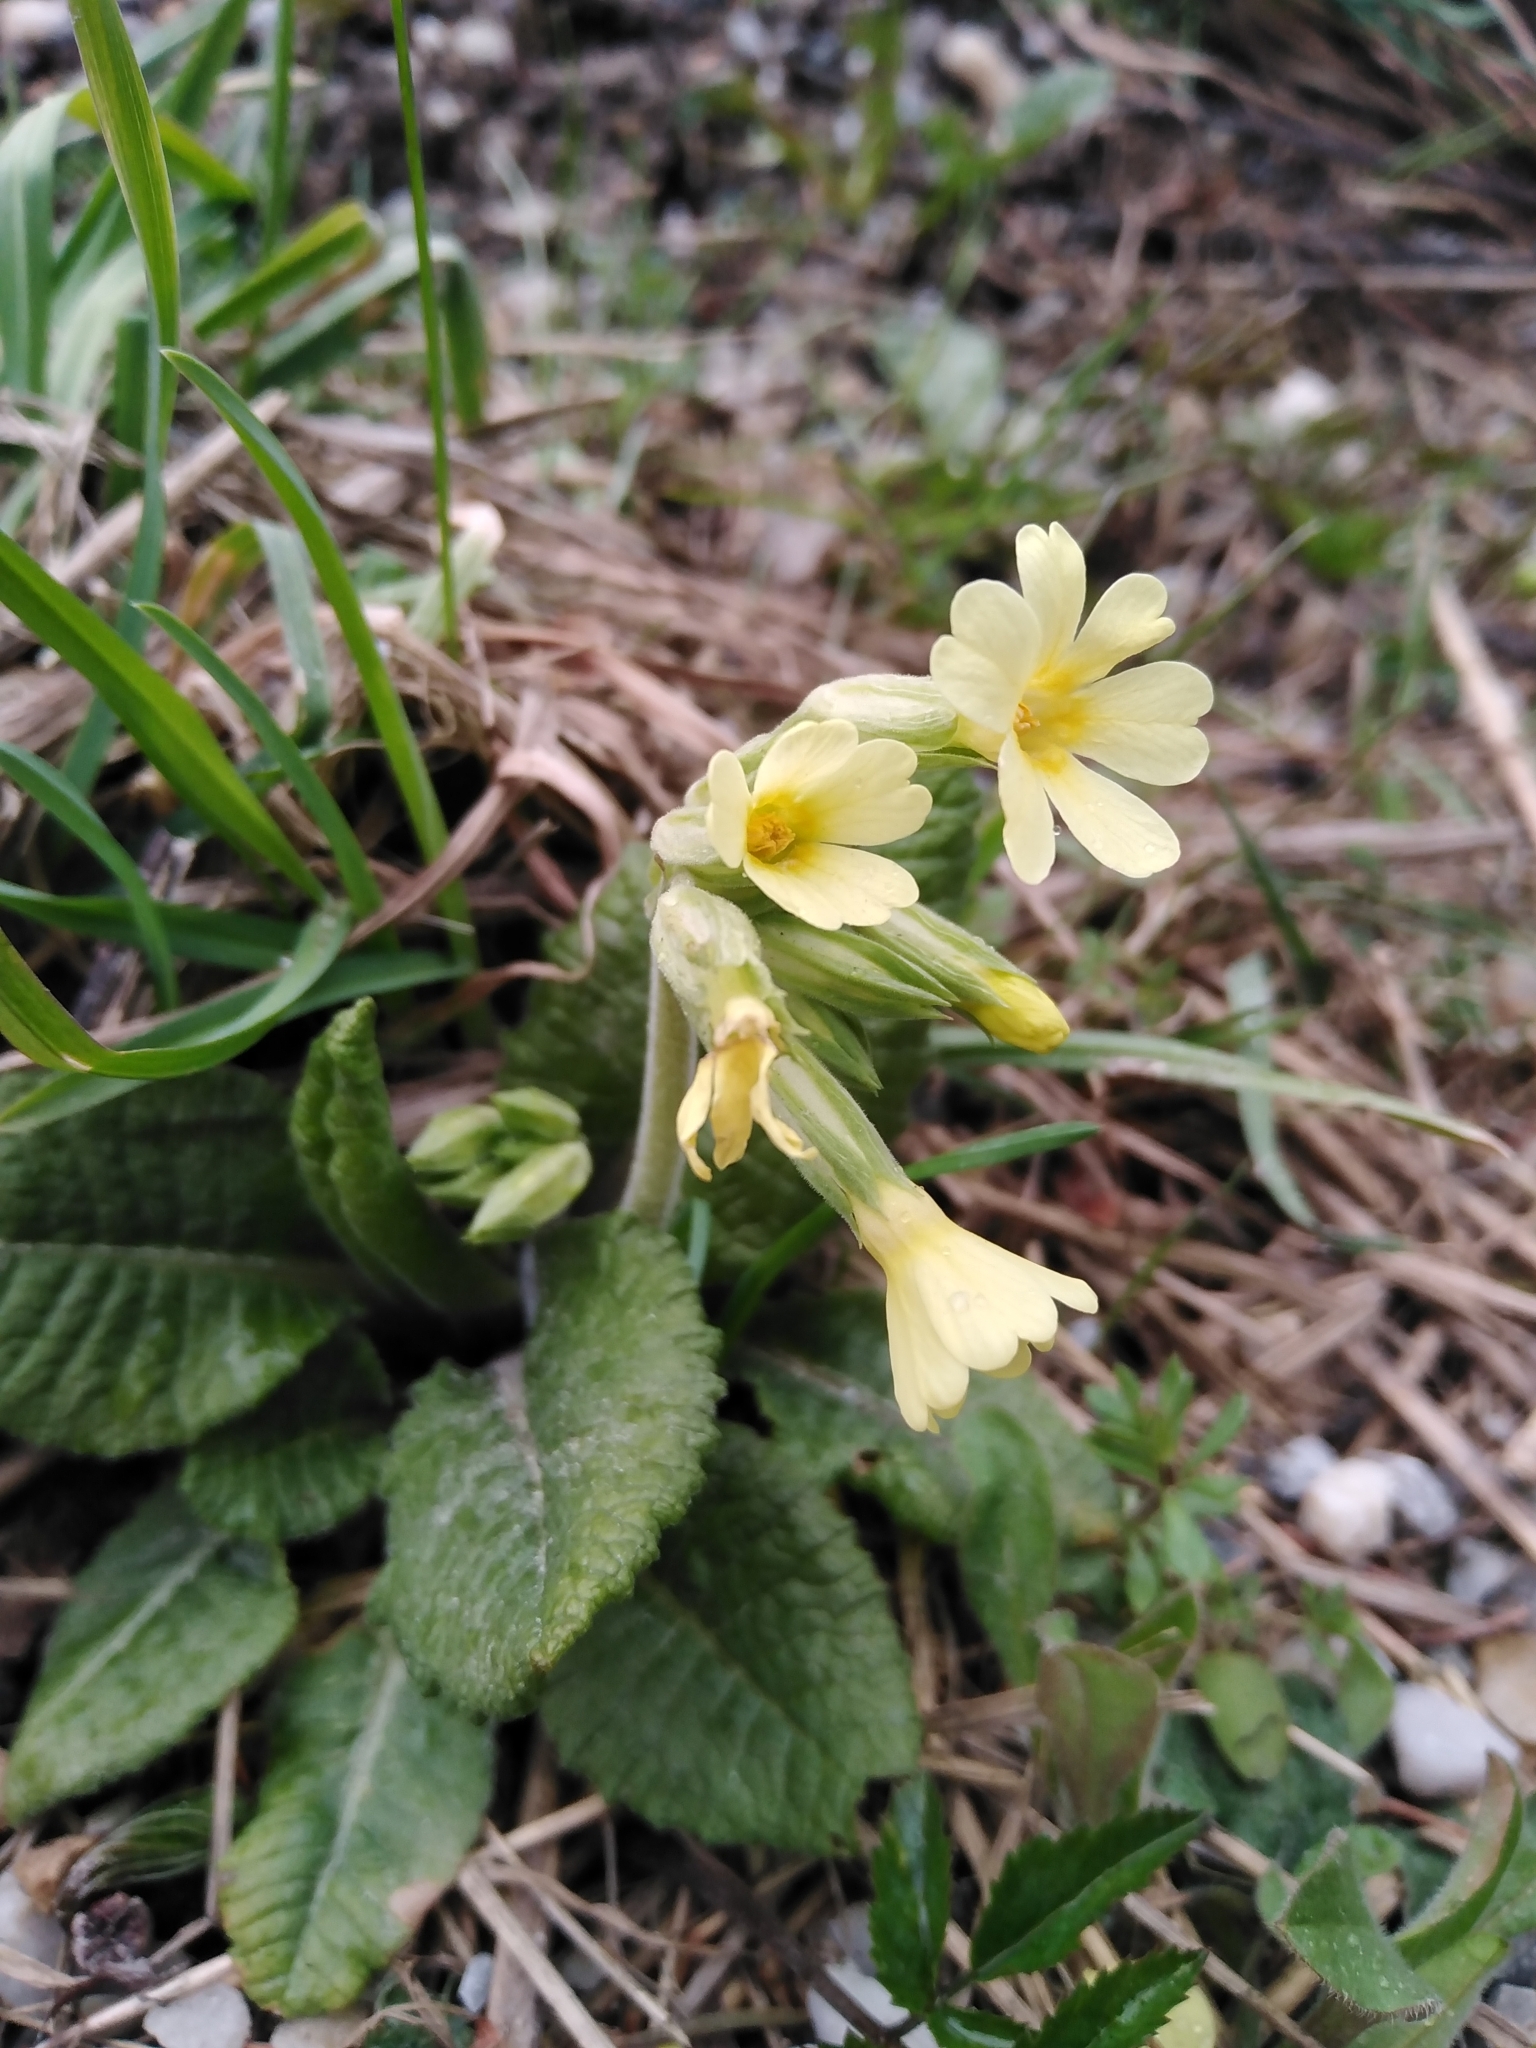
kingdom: Plantae
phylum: Tracheophyta
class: Magnoliopsida
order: Ericales
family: Primulaceae
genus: Primula
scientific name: Primula elatior
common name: Oxlip
